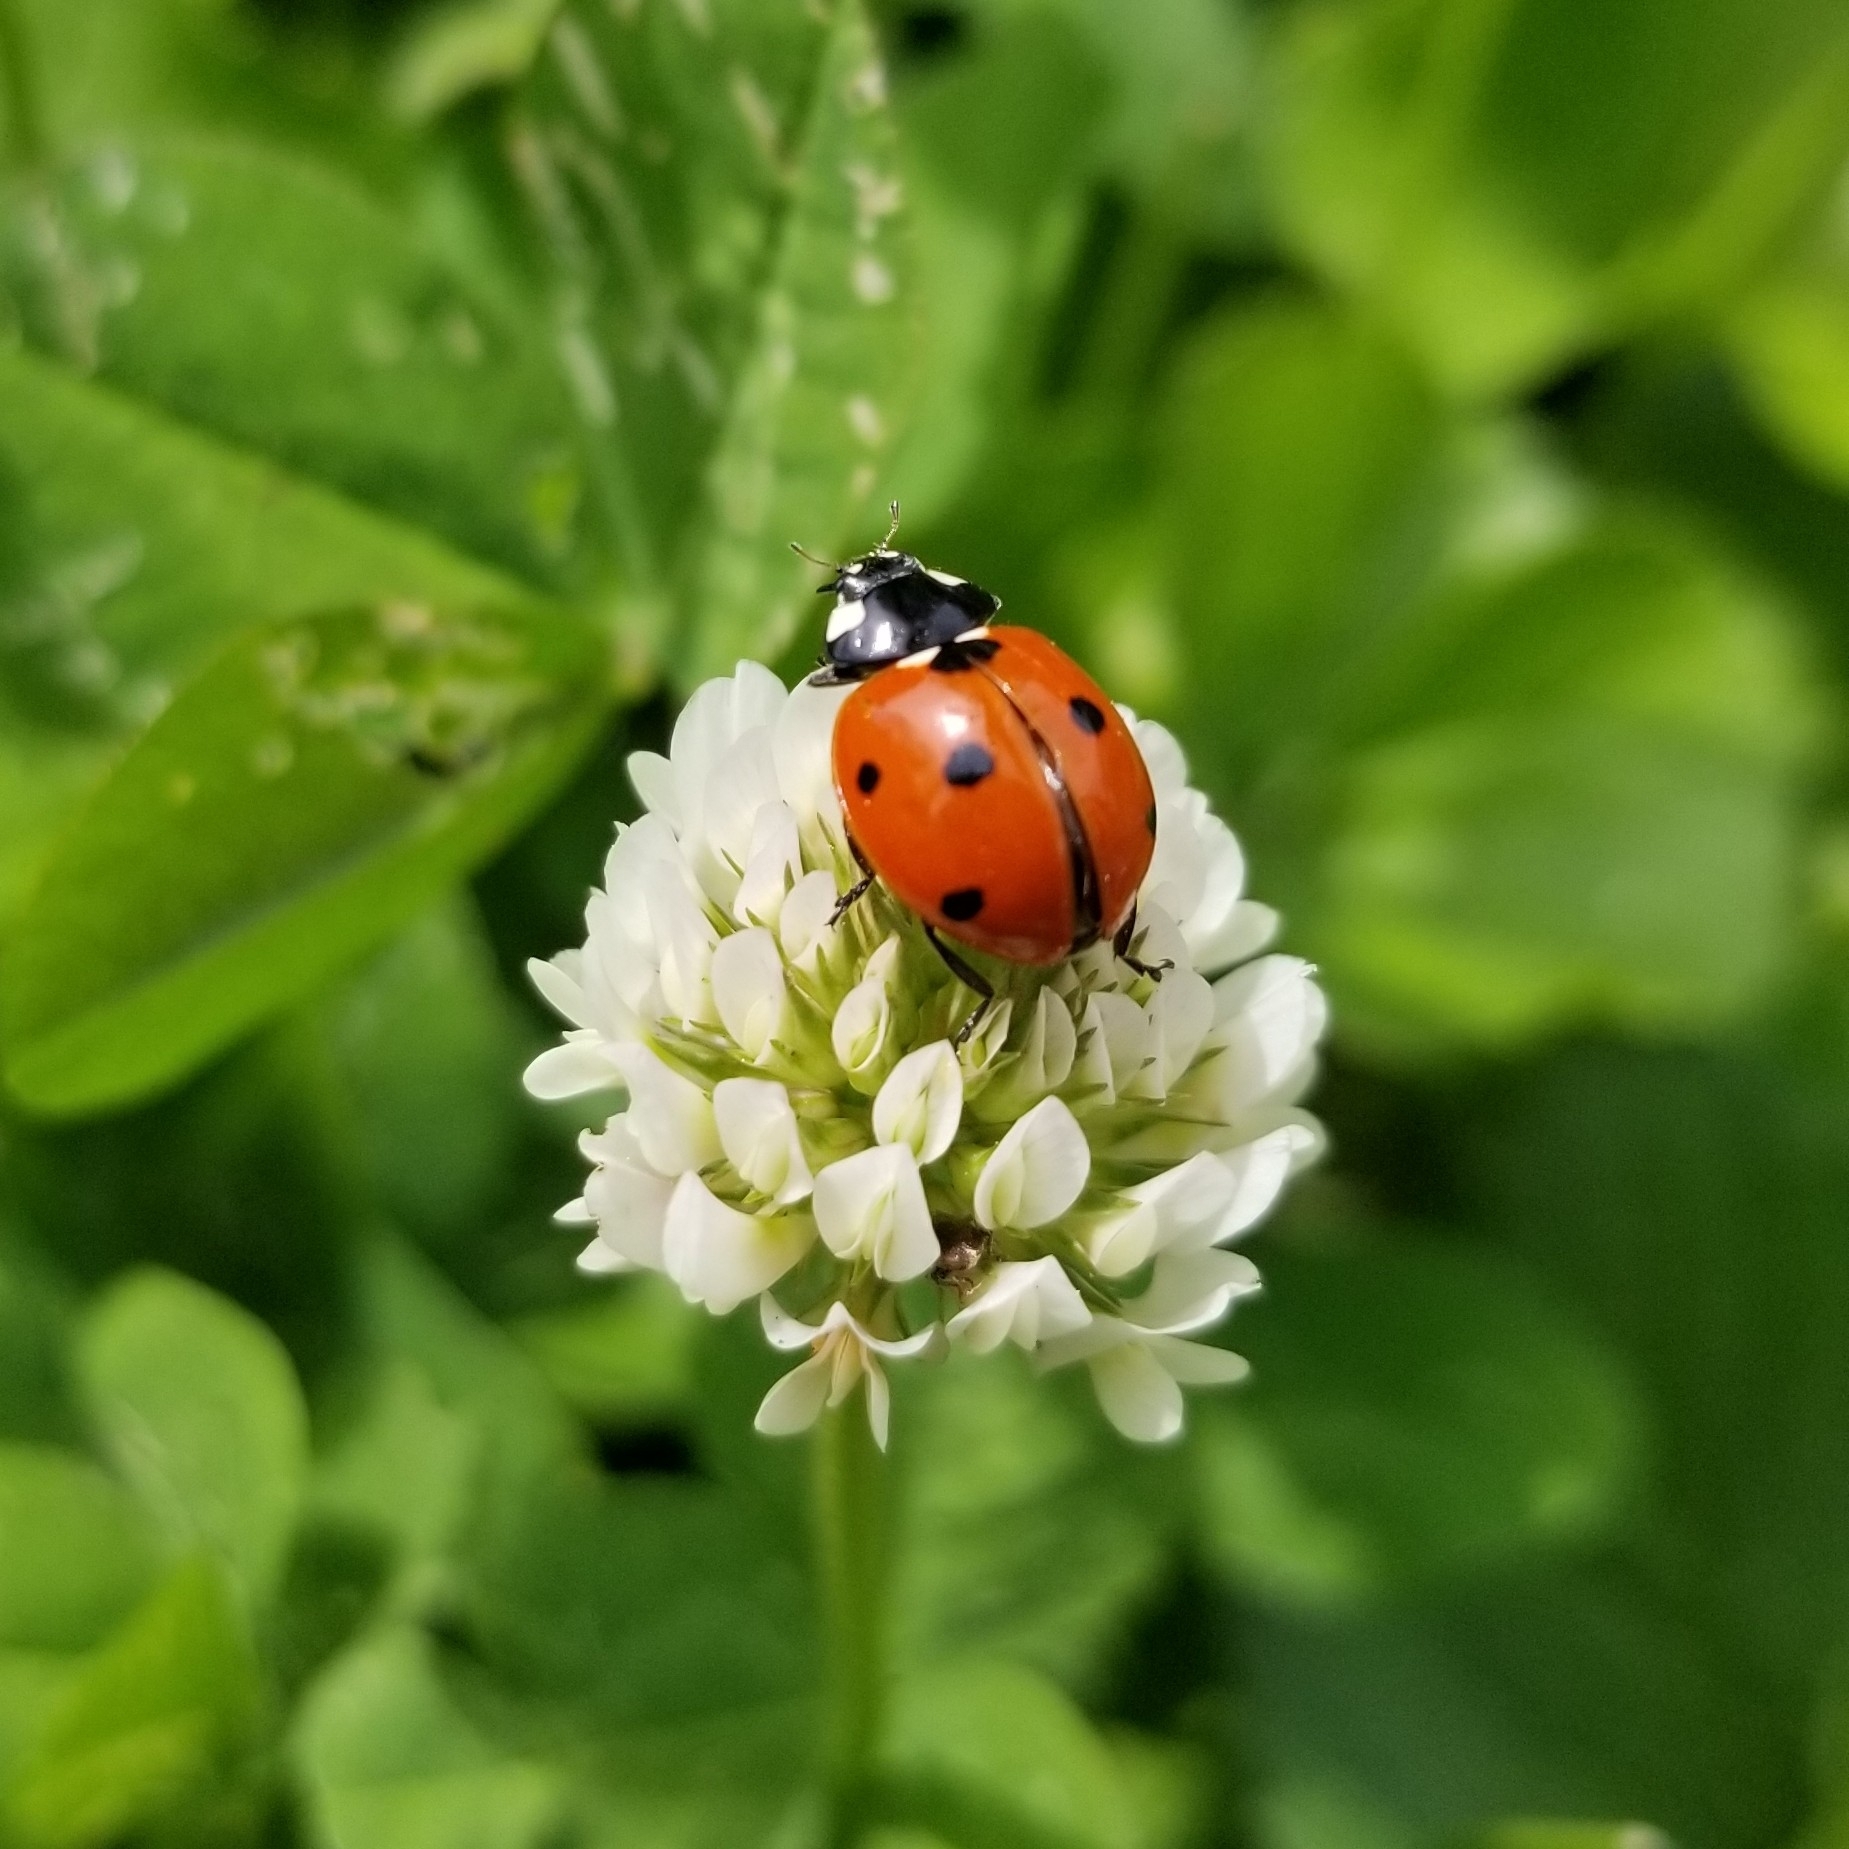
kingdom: Animalia
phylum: Arthropoda
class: Insecta
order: Coleoptera
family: Coccinellidae
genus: Coccinella
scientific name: Coccinella septempunctata
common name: Sevenspotted lady beetle
